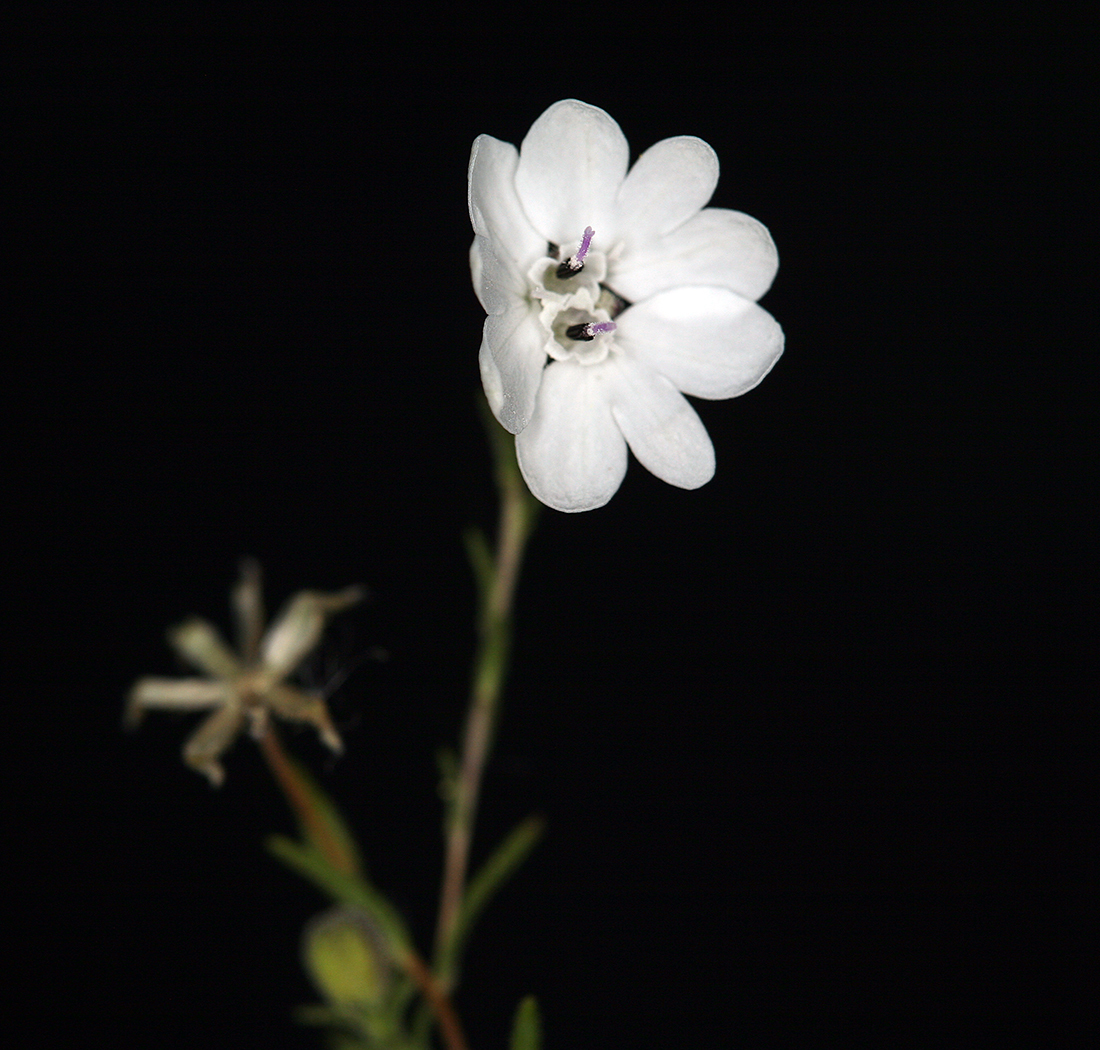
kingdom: Plantae
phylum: Tracheophyta
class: Magnoliopsida
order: Asterales
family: Asteraceae
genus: Blepharipappus
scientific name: Blepharipappus scaber
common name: Rough blepharipappus
